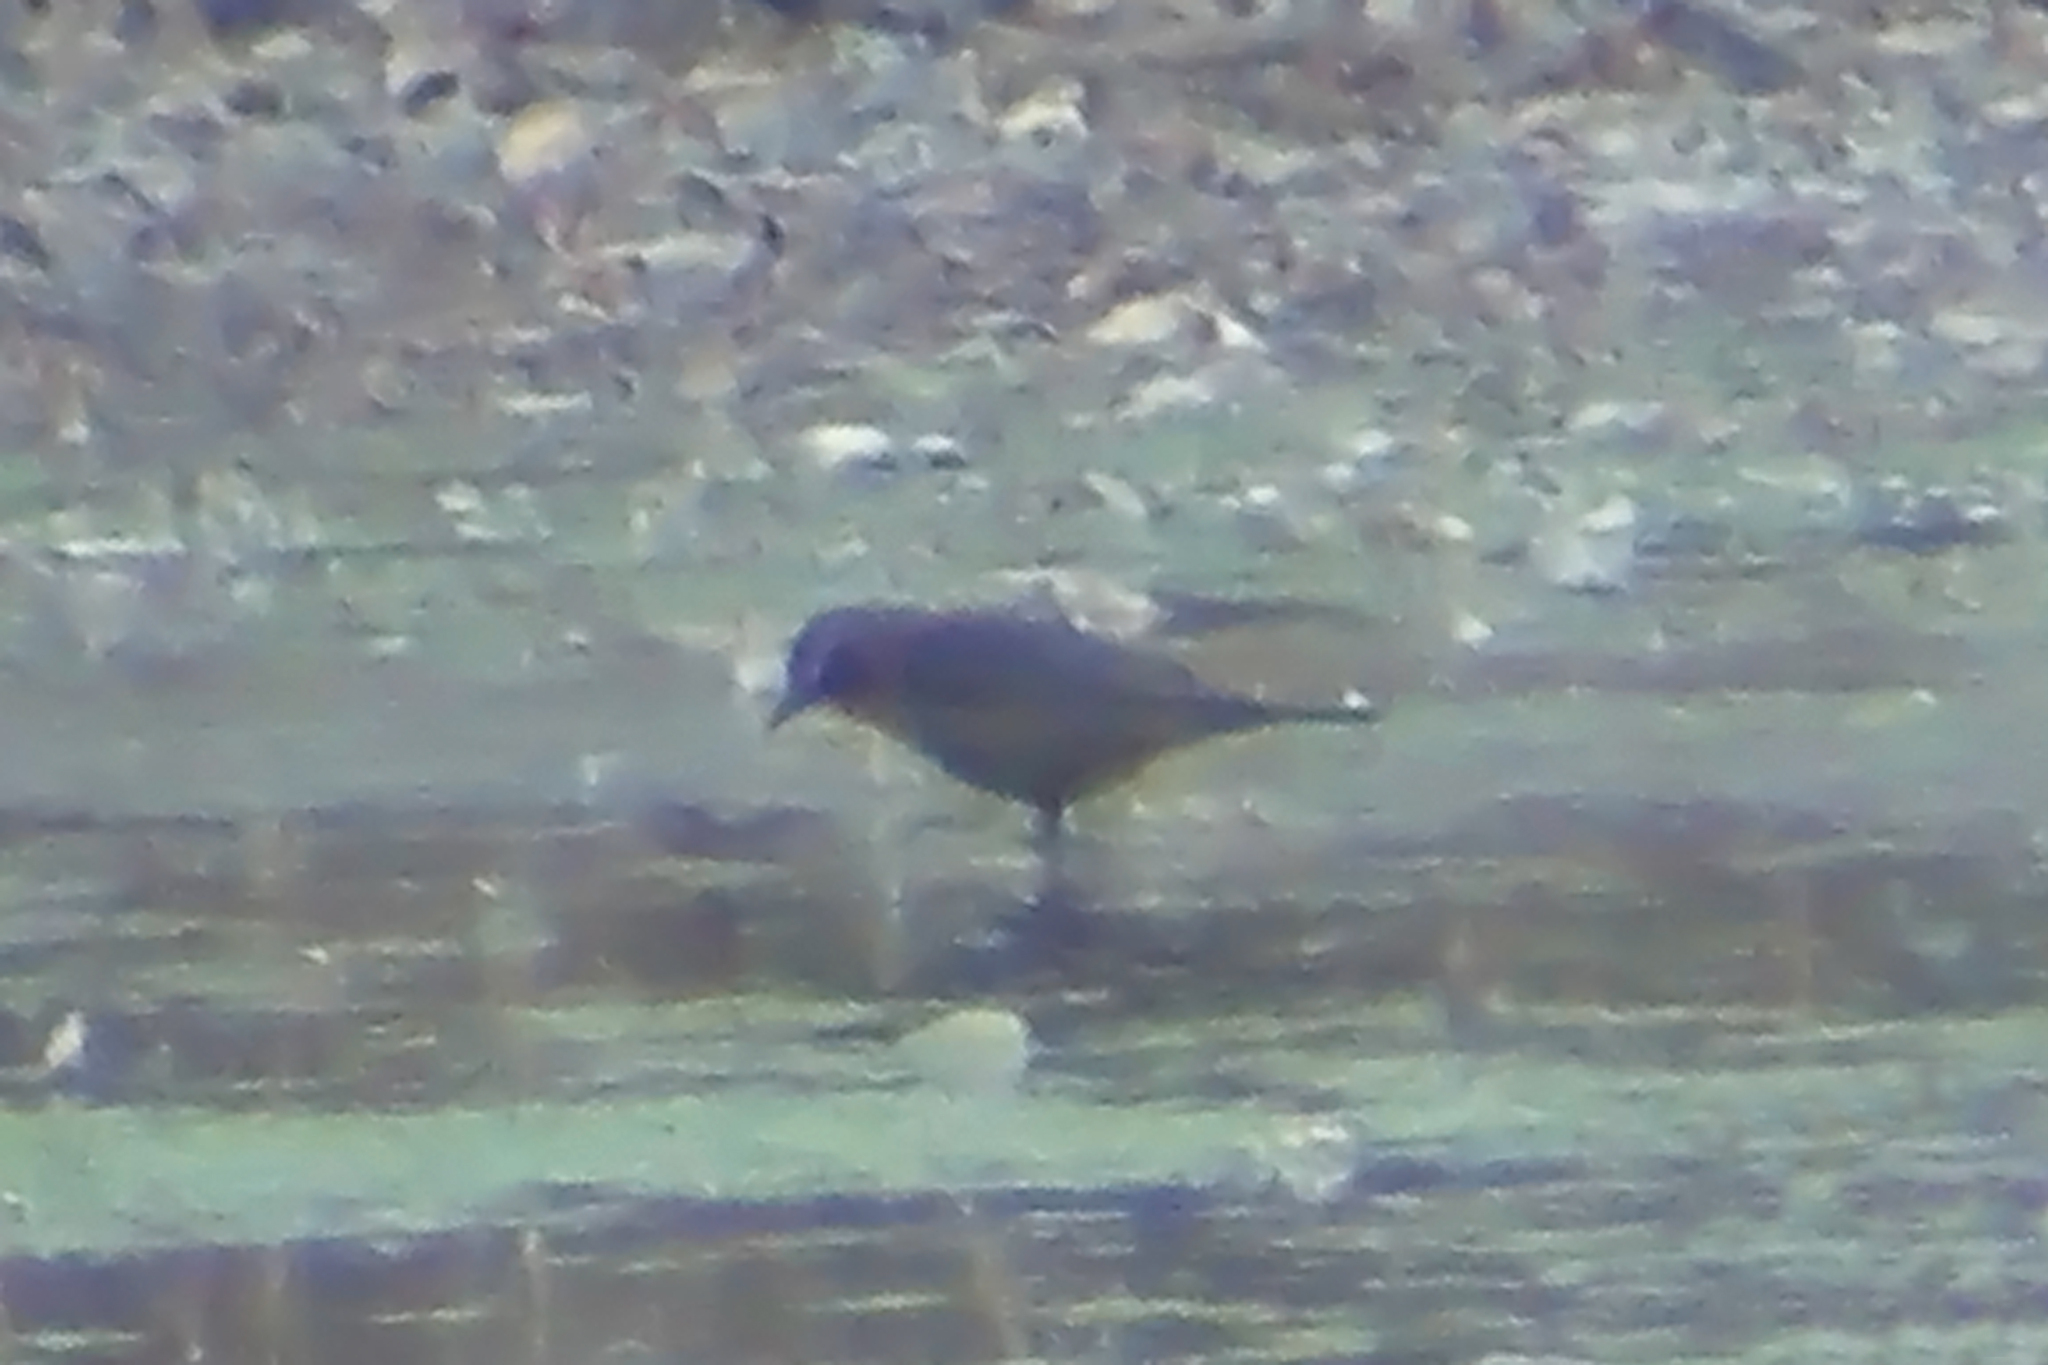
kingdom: Animalia
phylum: Chordata
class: Aves
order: Passeriformes
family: Icteridae
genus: Euphagus
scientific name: Euphagus carolinus
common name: Rusty blackbird
